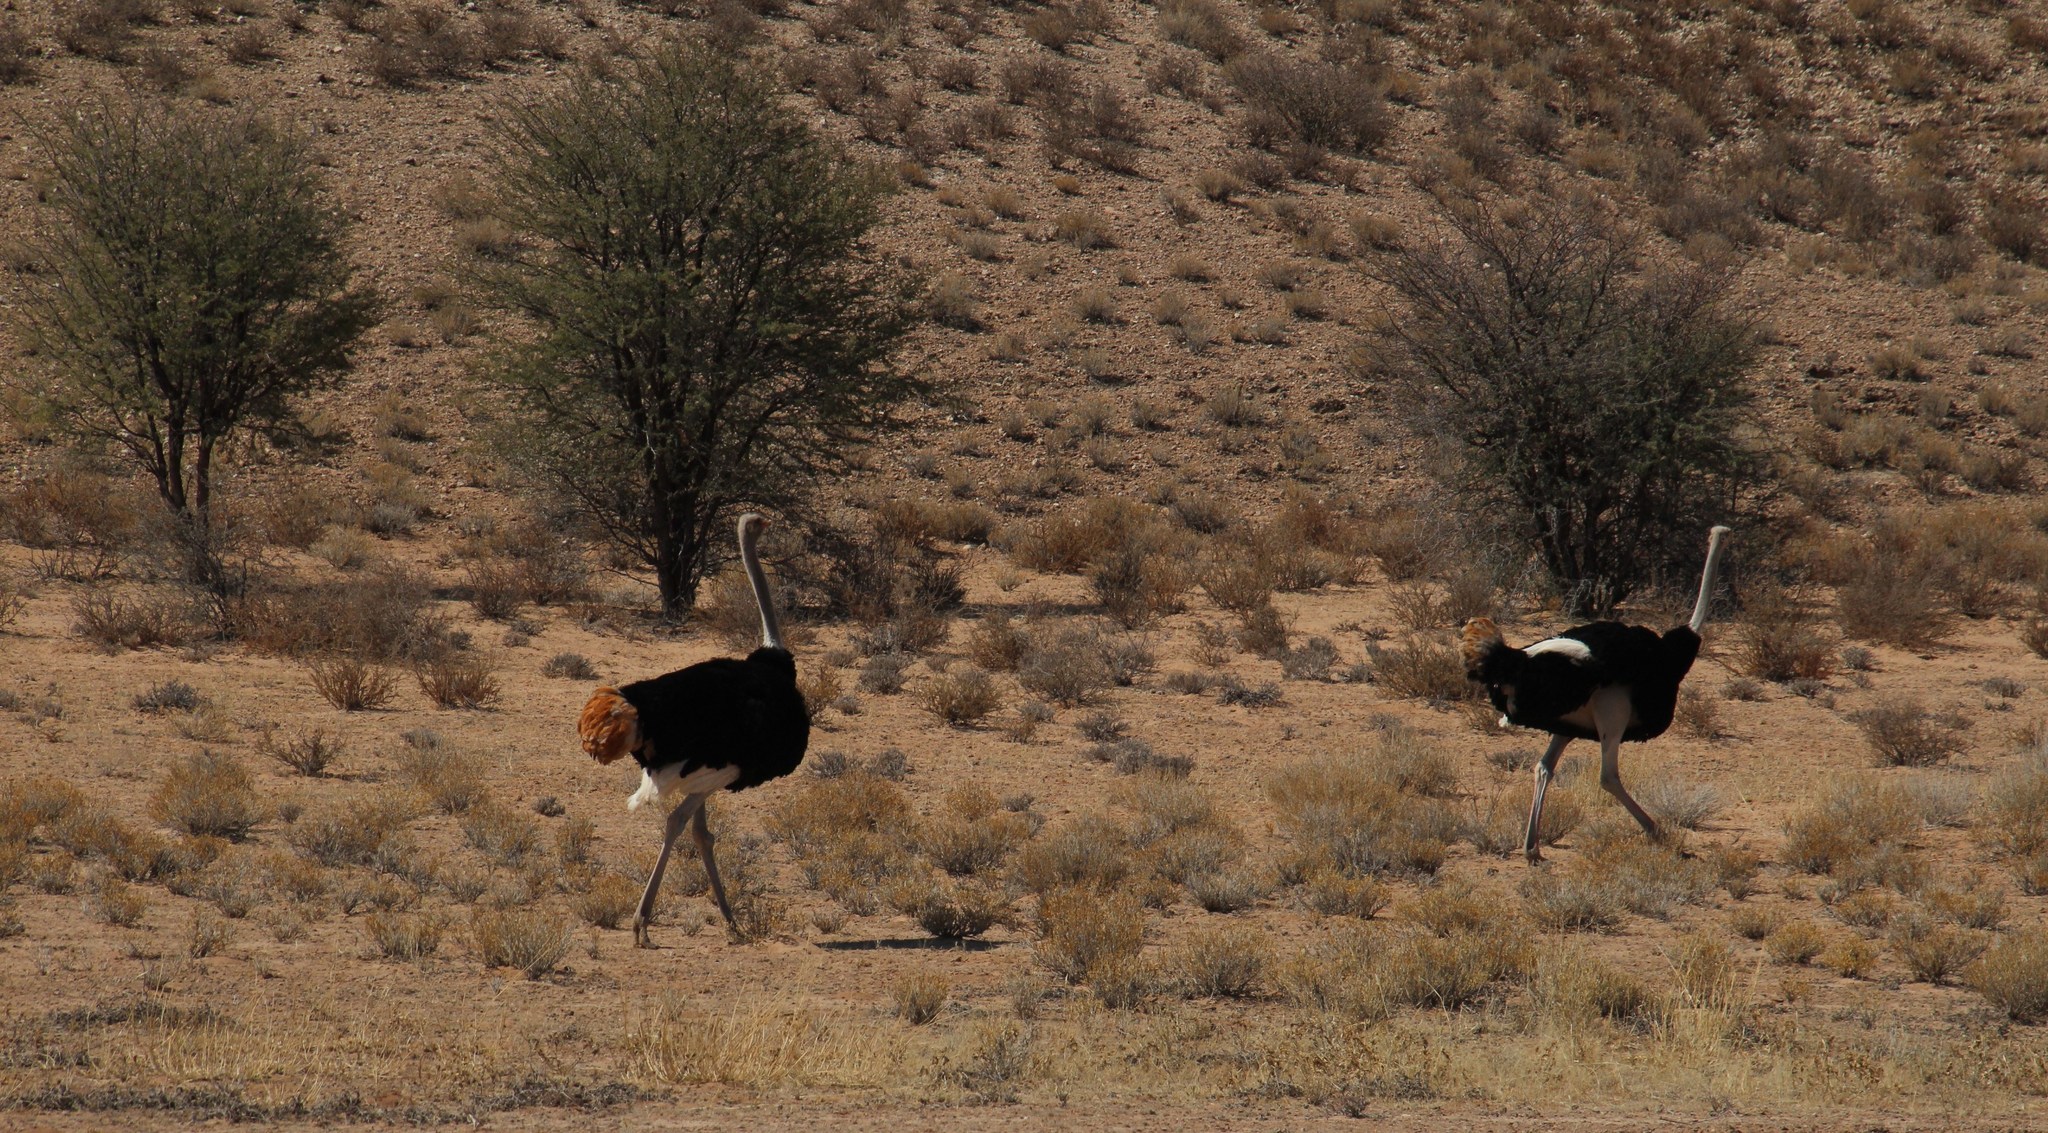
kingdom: Animalia
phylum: Chordata
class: Aves
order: Struthioniformes
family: Struthionidae
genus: Struthio
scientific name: Struthio camelus
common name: Common ostrich
